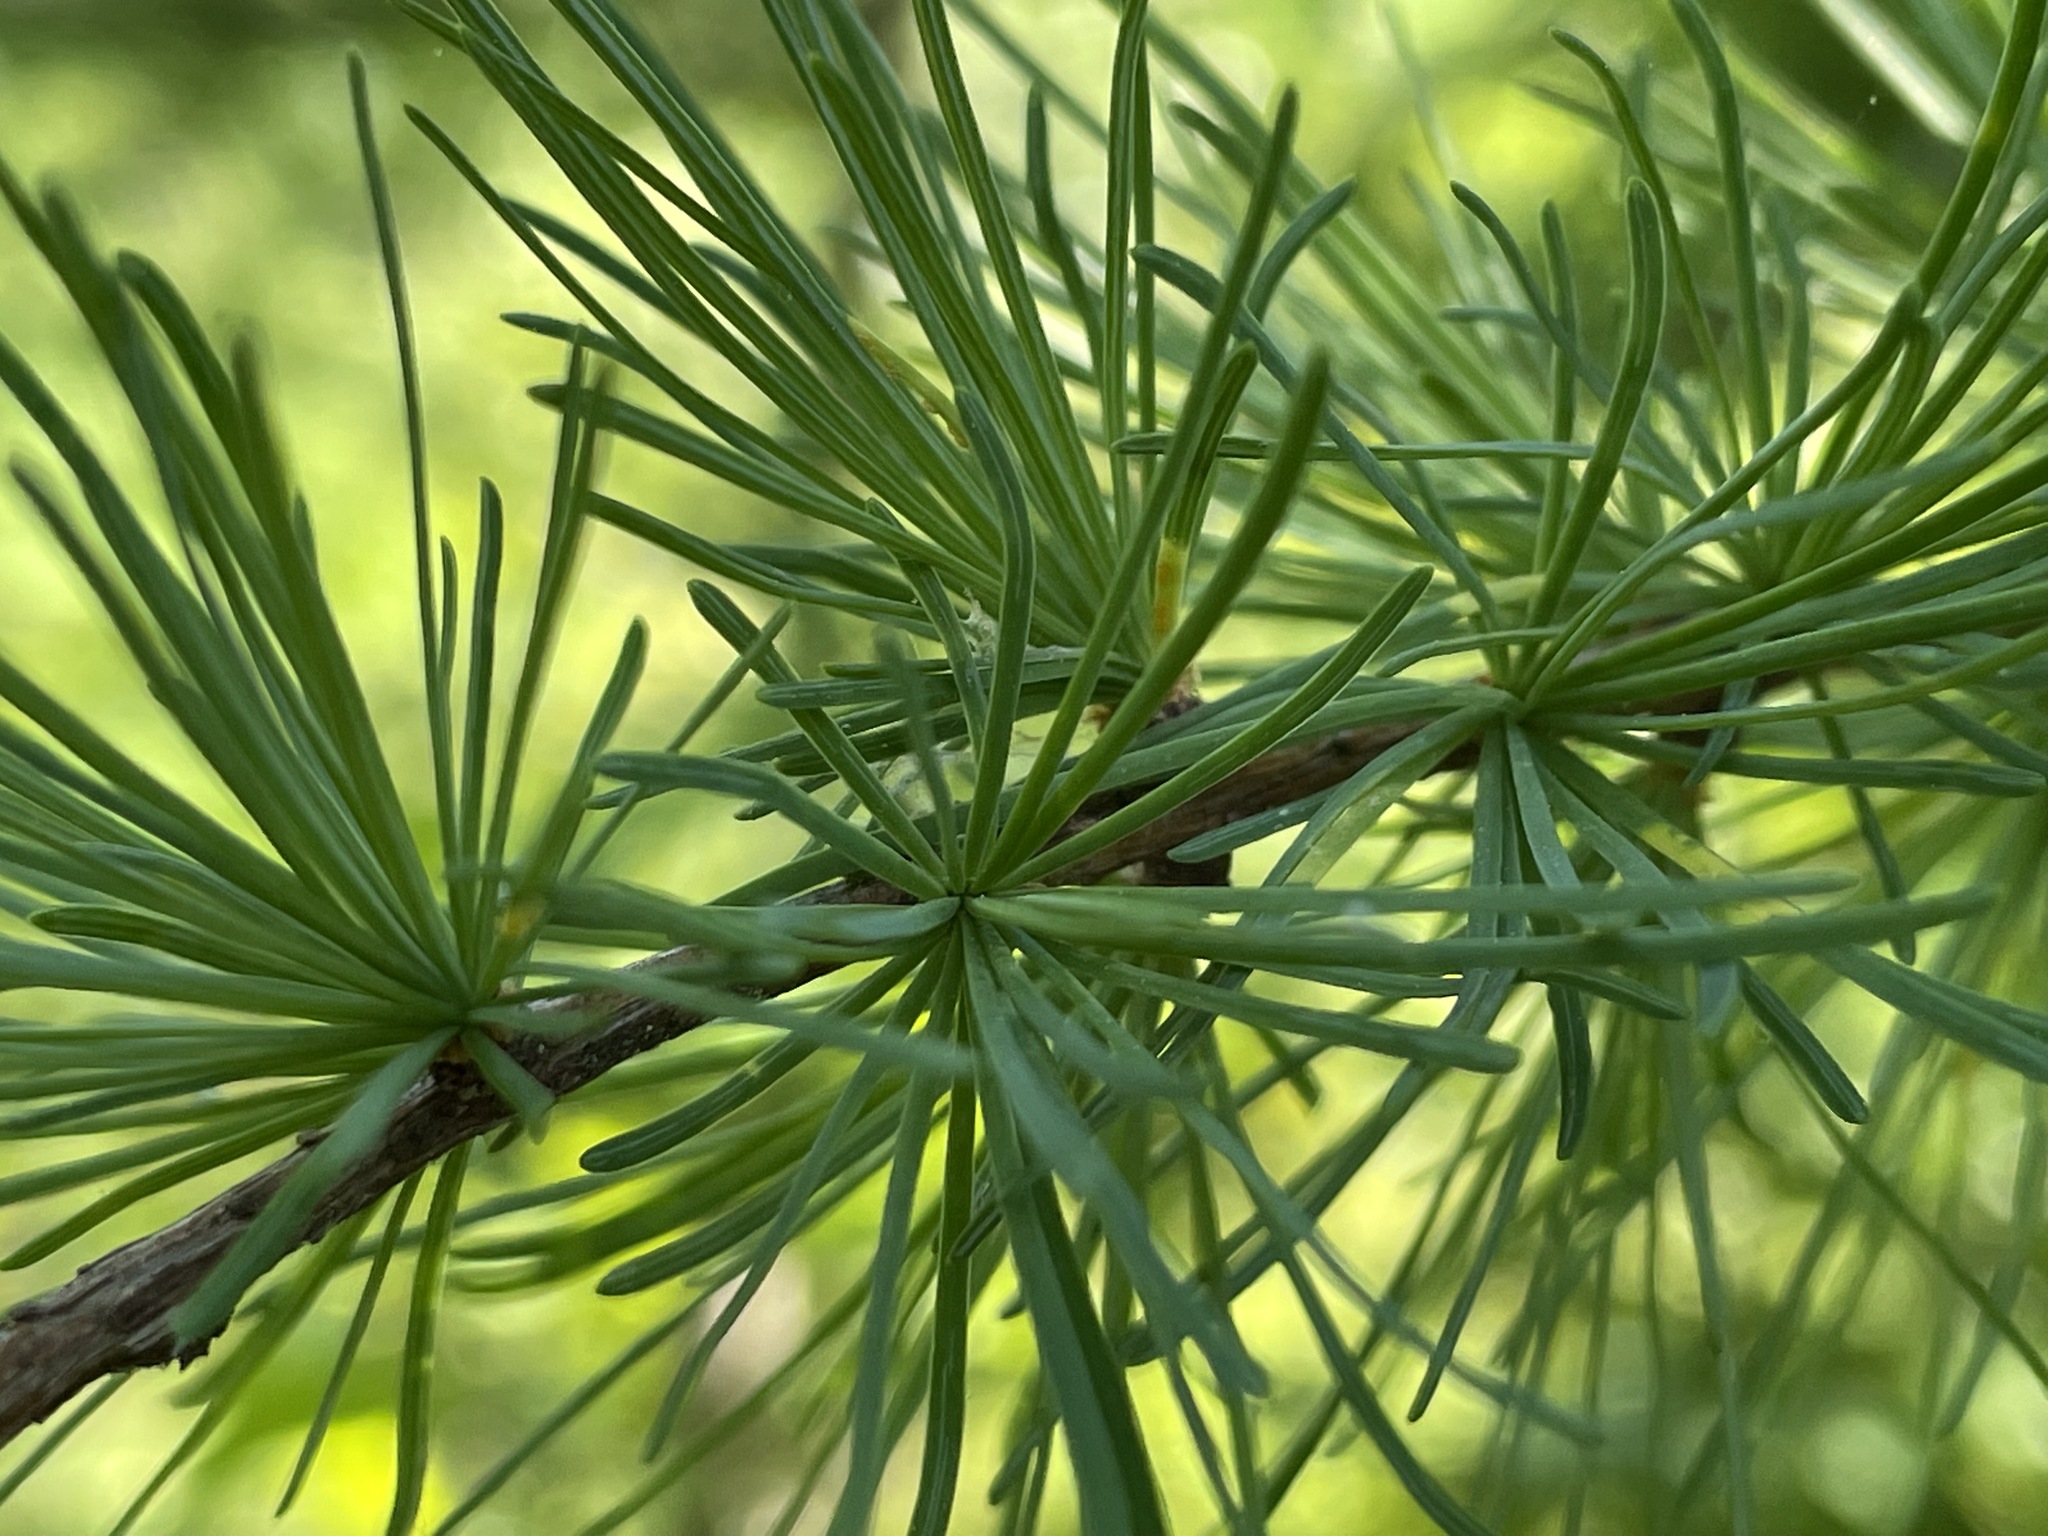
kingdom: Plantae
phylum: Tracheophyta
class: Pinopsida
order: Pinales
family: Pinaceae
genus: Larix
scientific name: Larix laricina
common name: American larch
